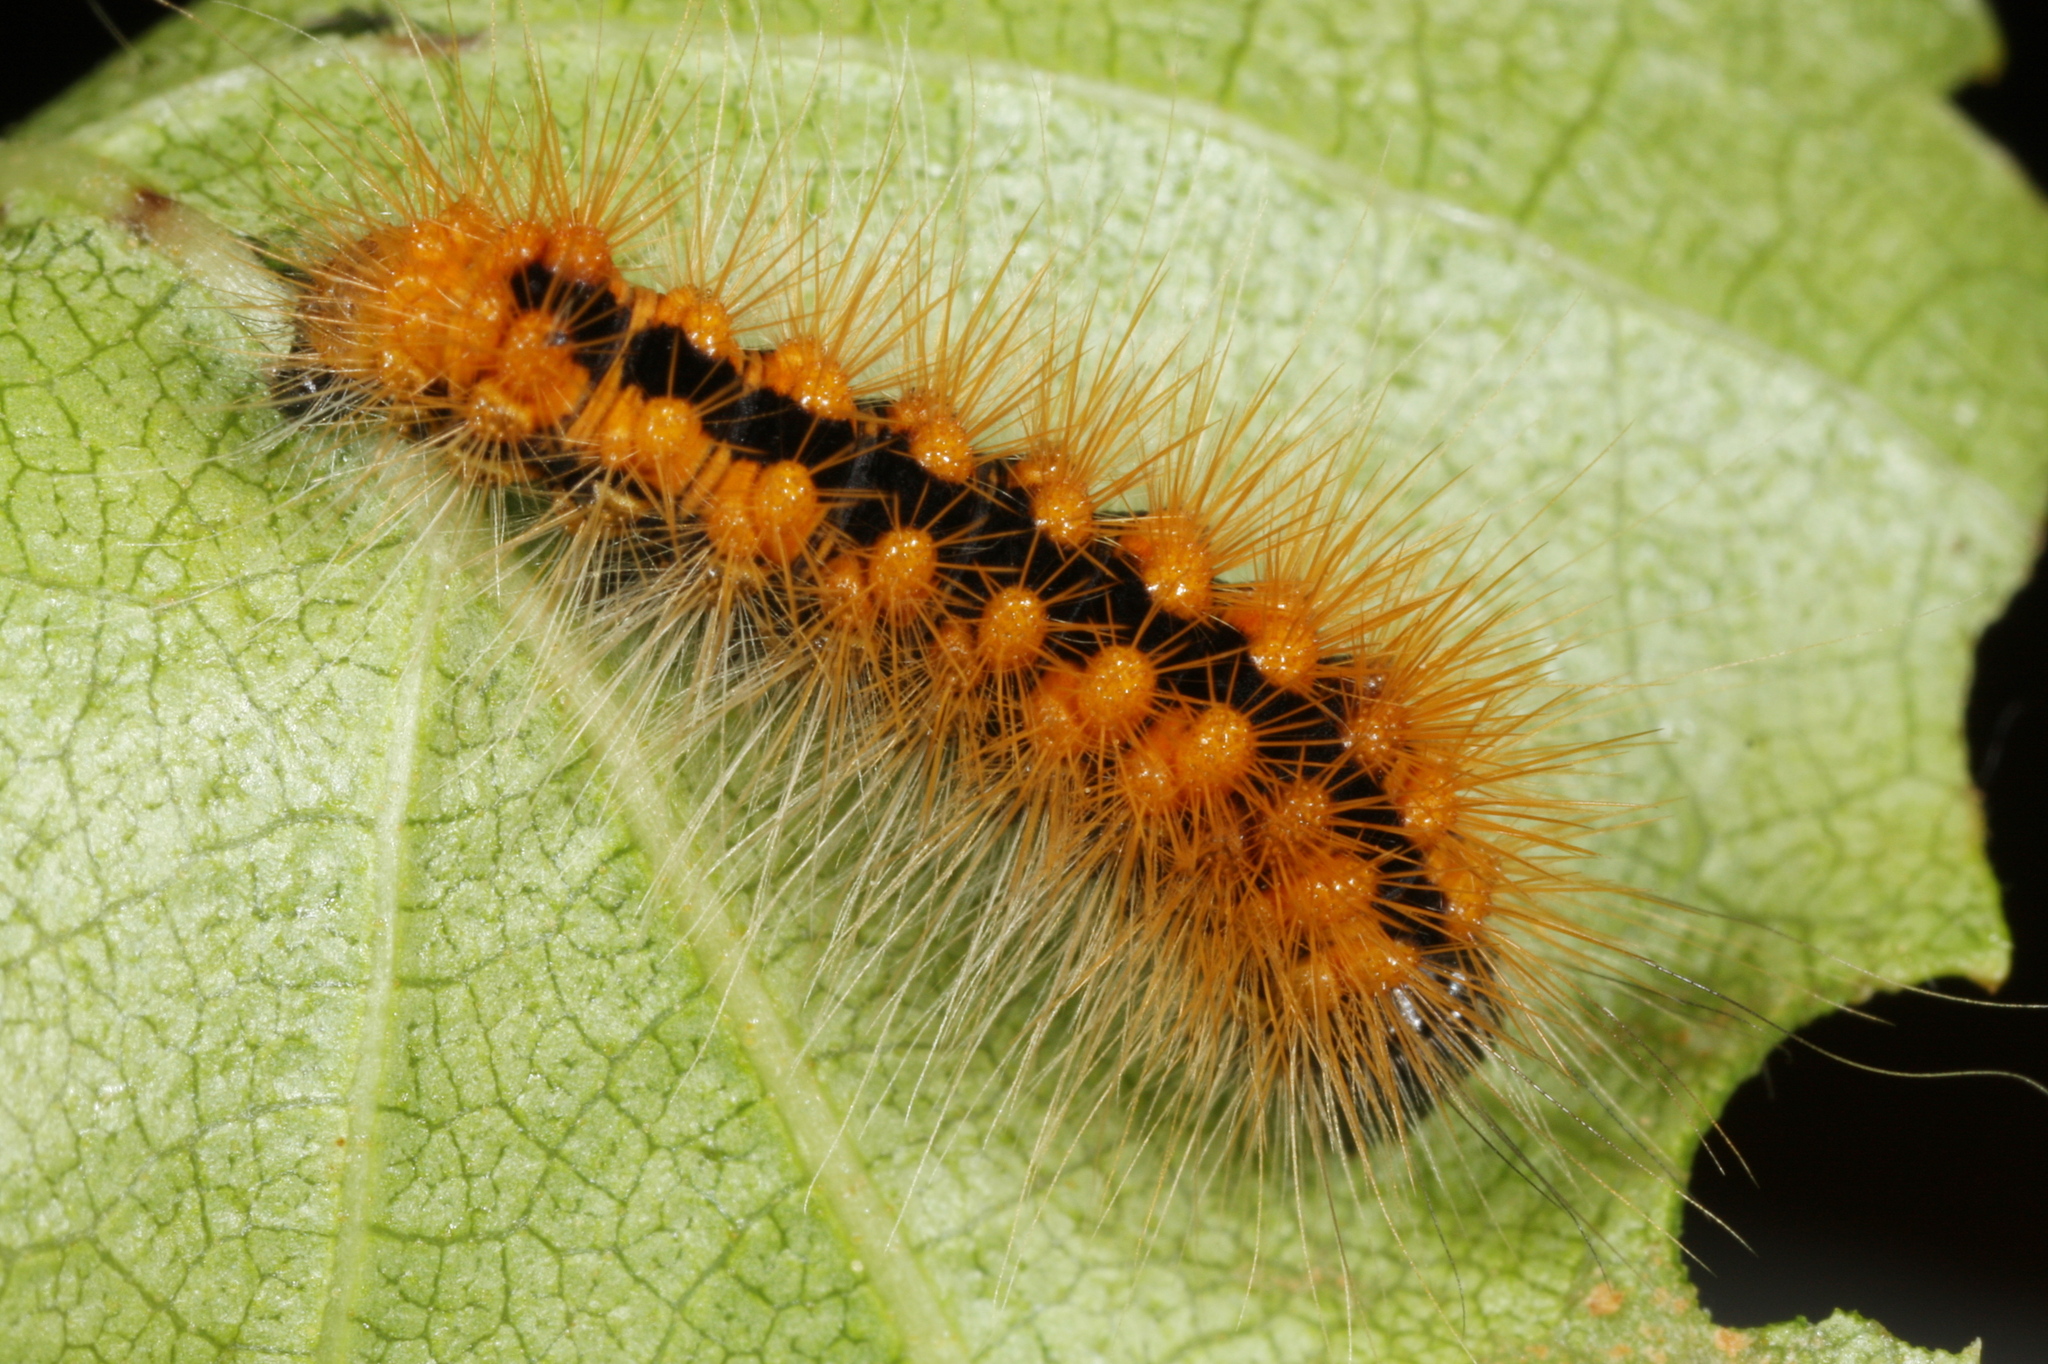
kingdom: Animalia
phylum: Arthropoda
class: Insecta
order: Lepidoptera
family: Noctuidae
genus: Acronicta
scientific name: Acronicta auricoma
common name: Scarce dagger
